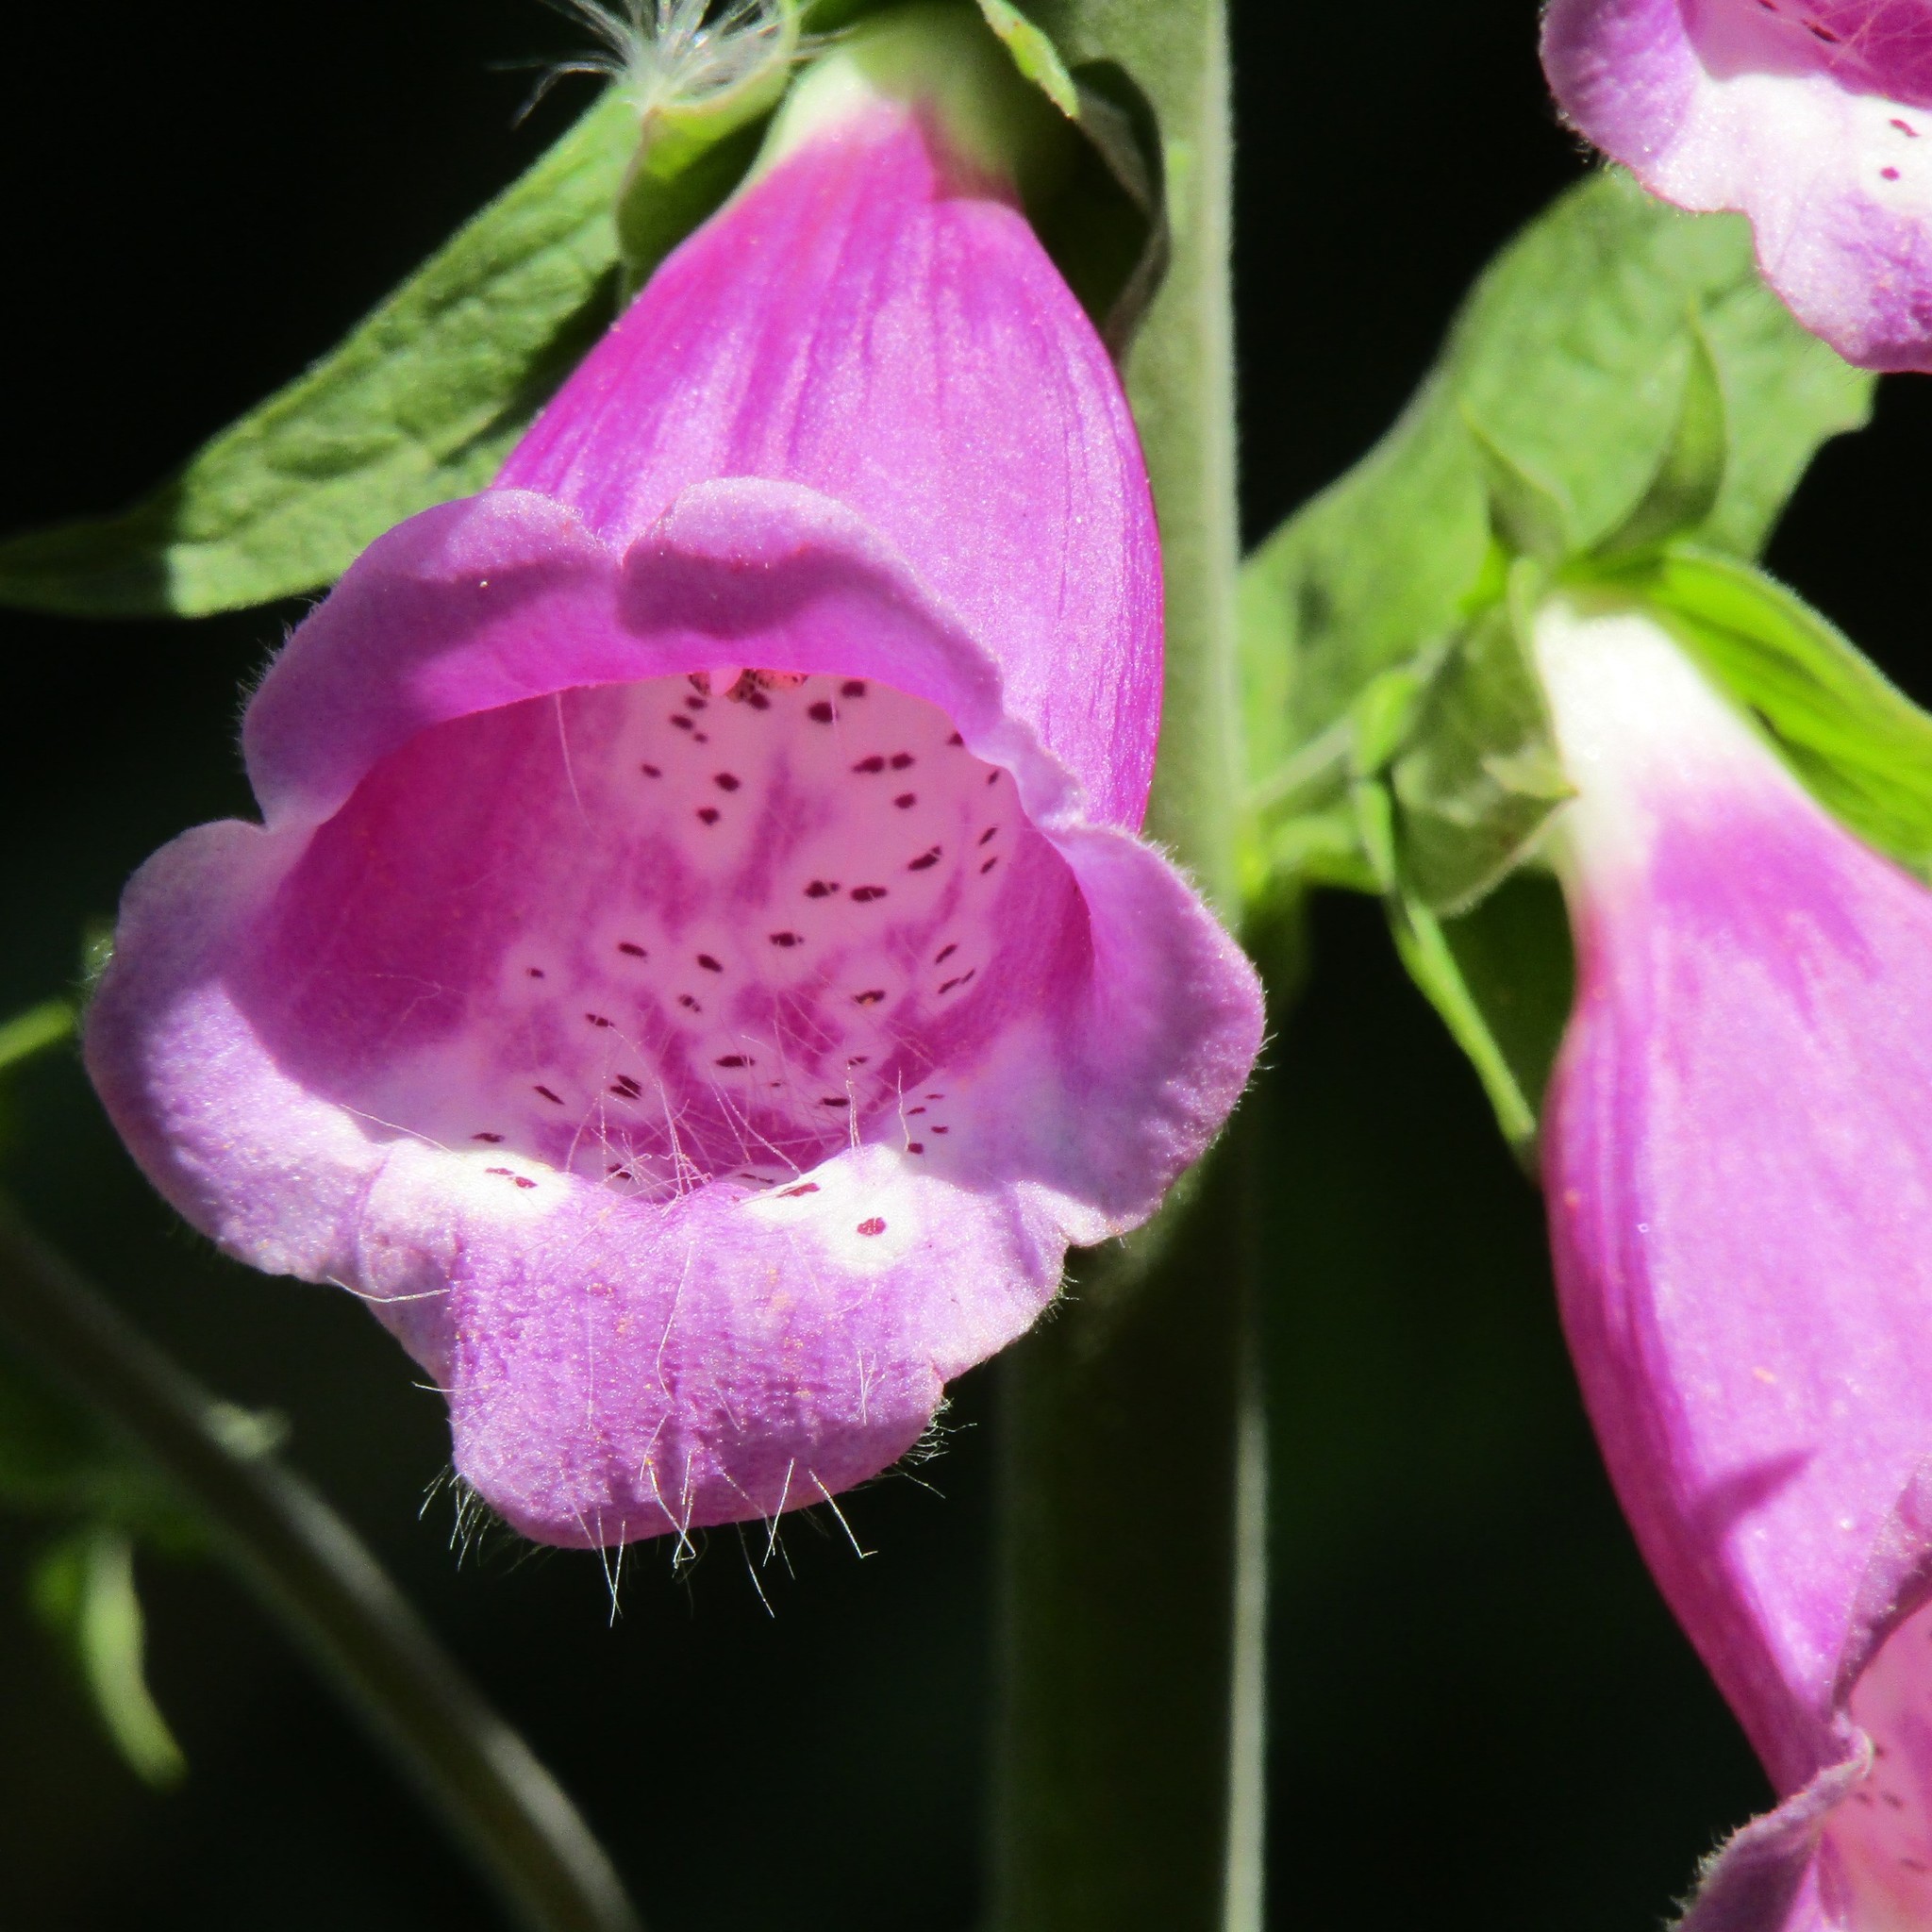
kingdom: Plantae
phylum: Tracheophyta
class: Magnoliopsida
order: Lamiales
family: Plantaginaceae
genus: Digitalis
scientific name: Digitalis purpurea
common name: Foxglove
